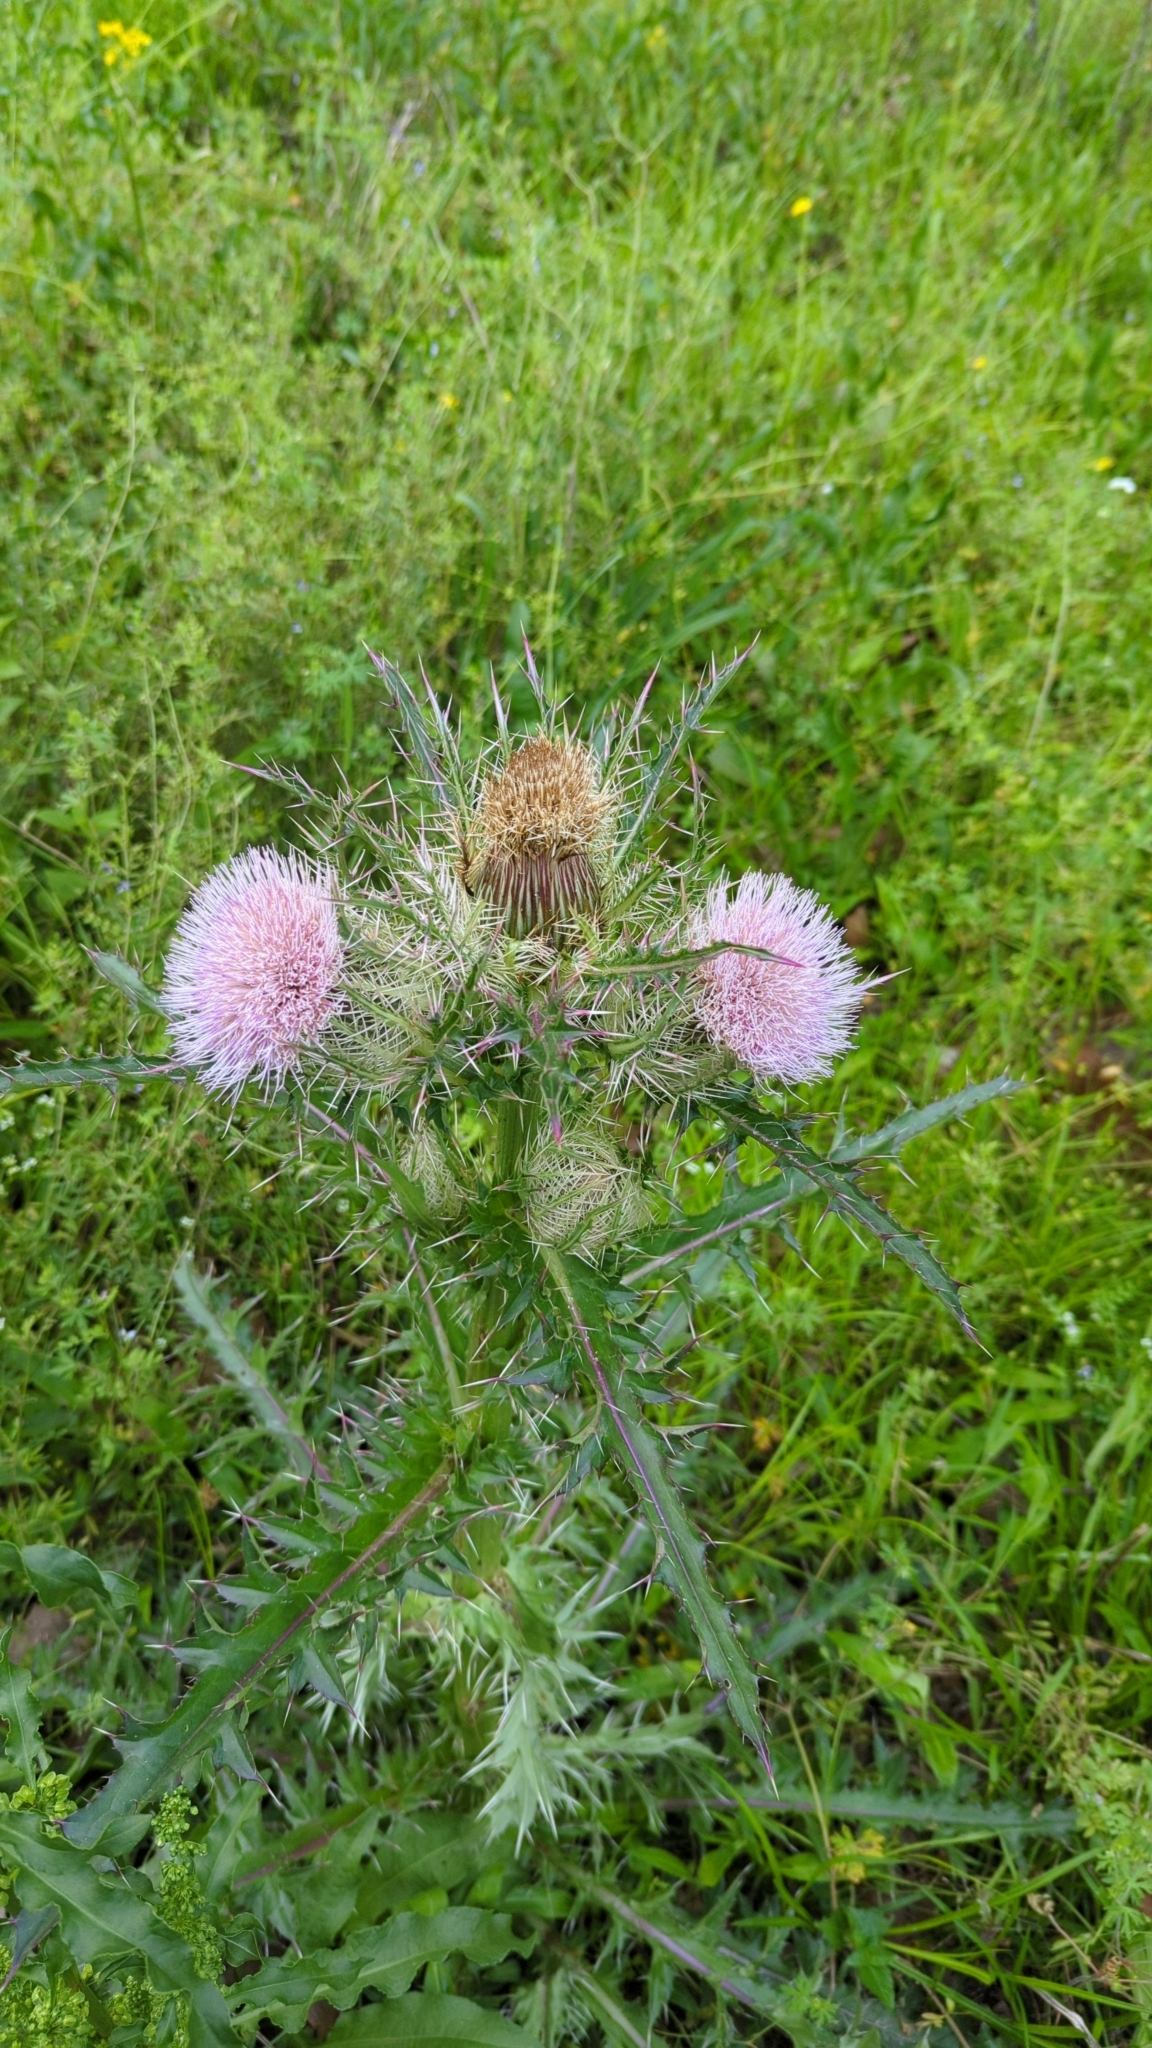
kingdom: Plantae
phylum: Tracheophyta
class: Magnoliopsida
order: Asterales
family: Asteraceae
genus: Cirsium
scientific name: Cirsium horridulum
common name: Bristly thistle
